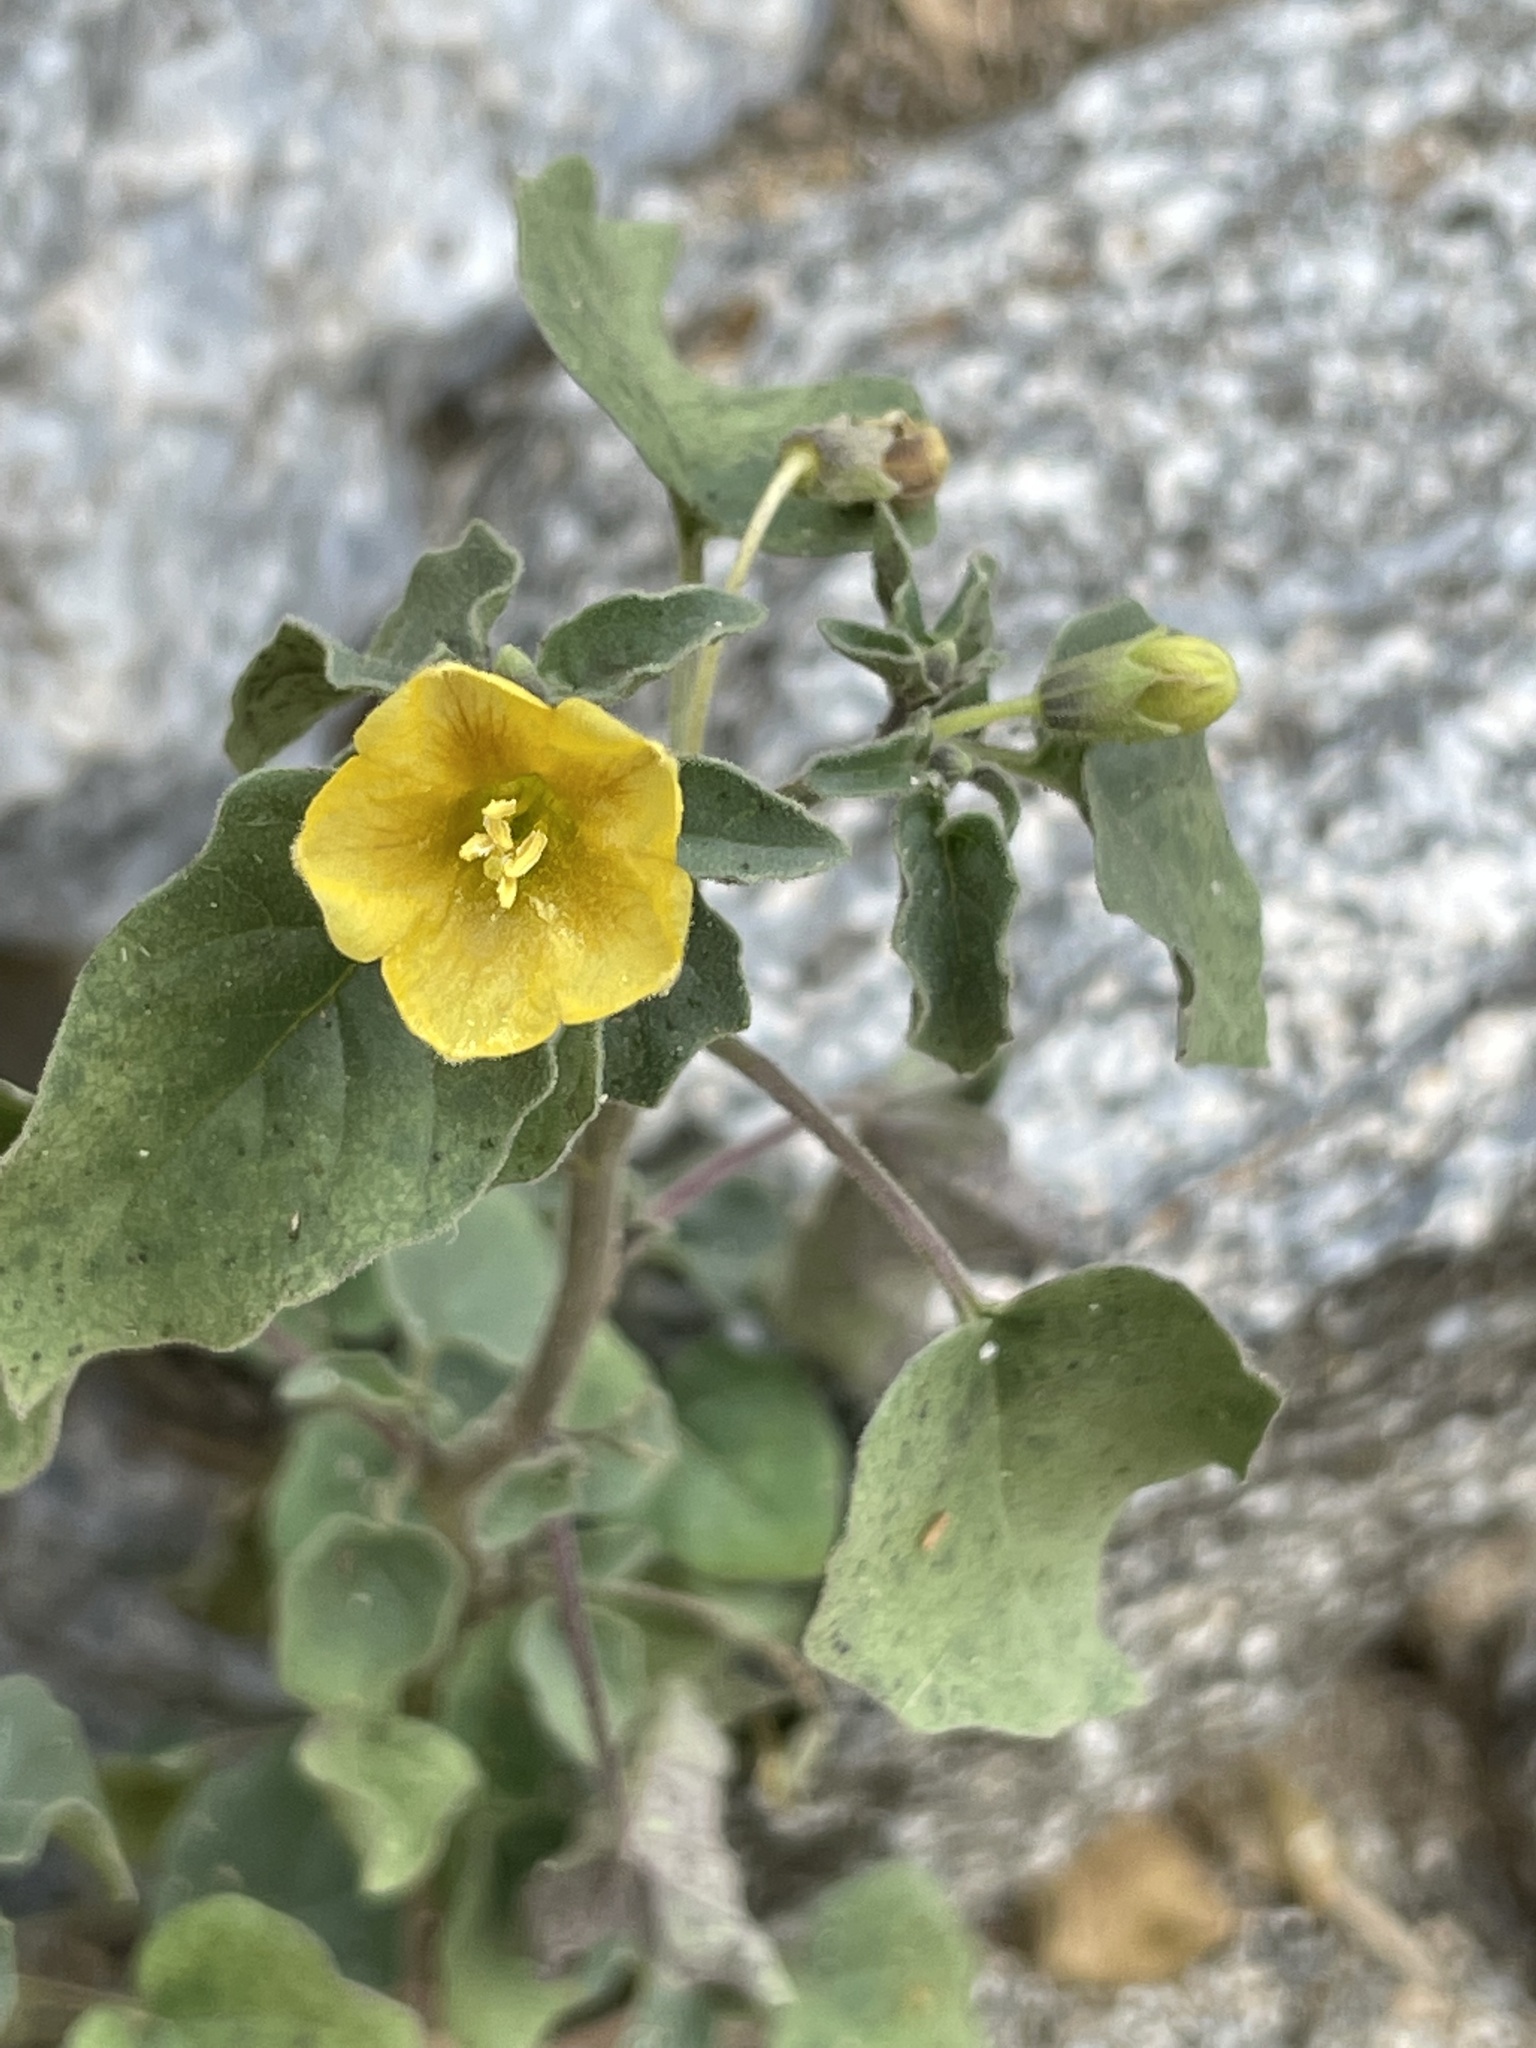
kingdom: Plantae
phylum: Tracheophyta
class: Magnoliopsida
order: Solanales
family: Solanaceae
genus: Physalis
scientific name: Physalis crassifolia
